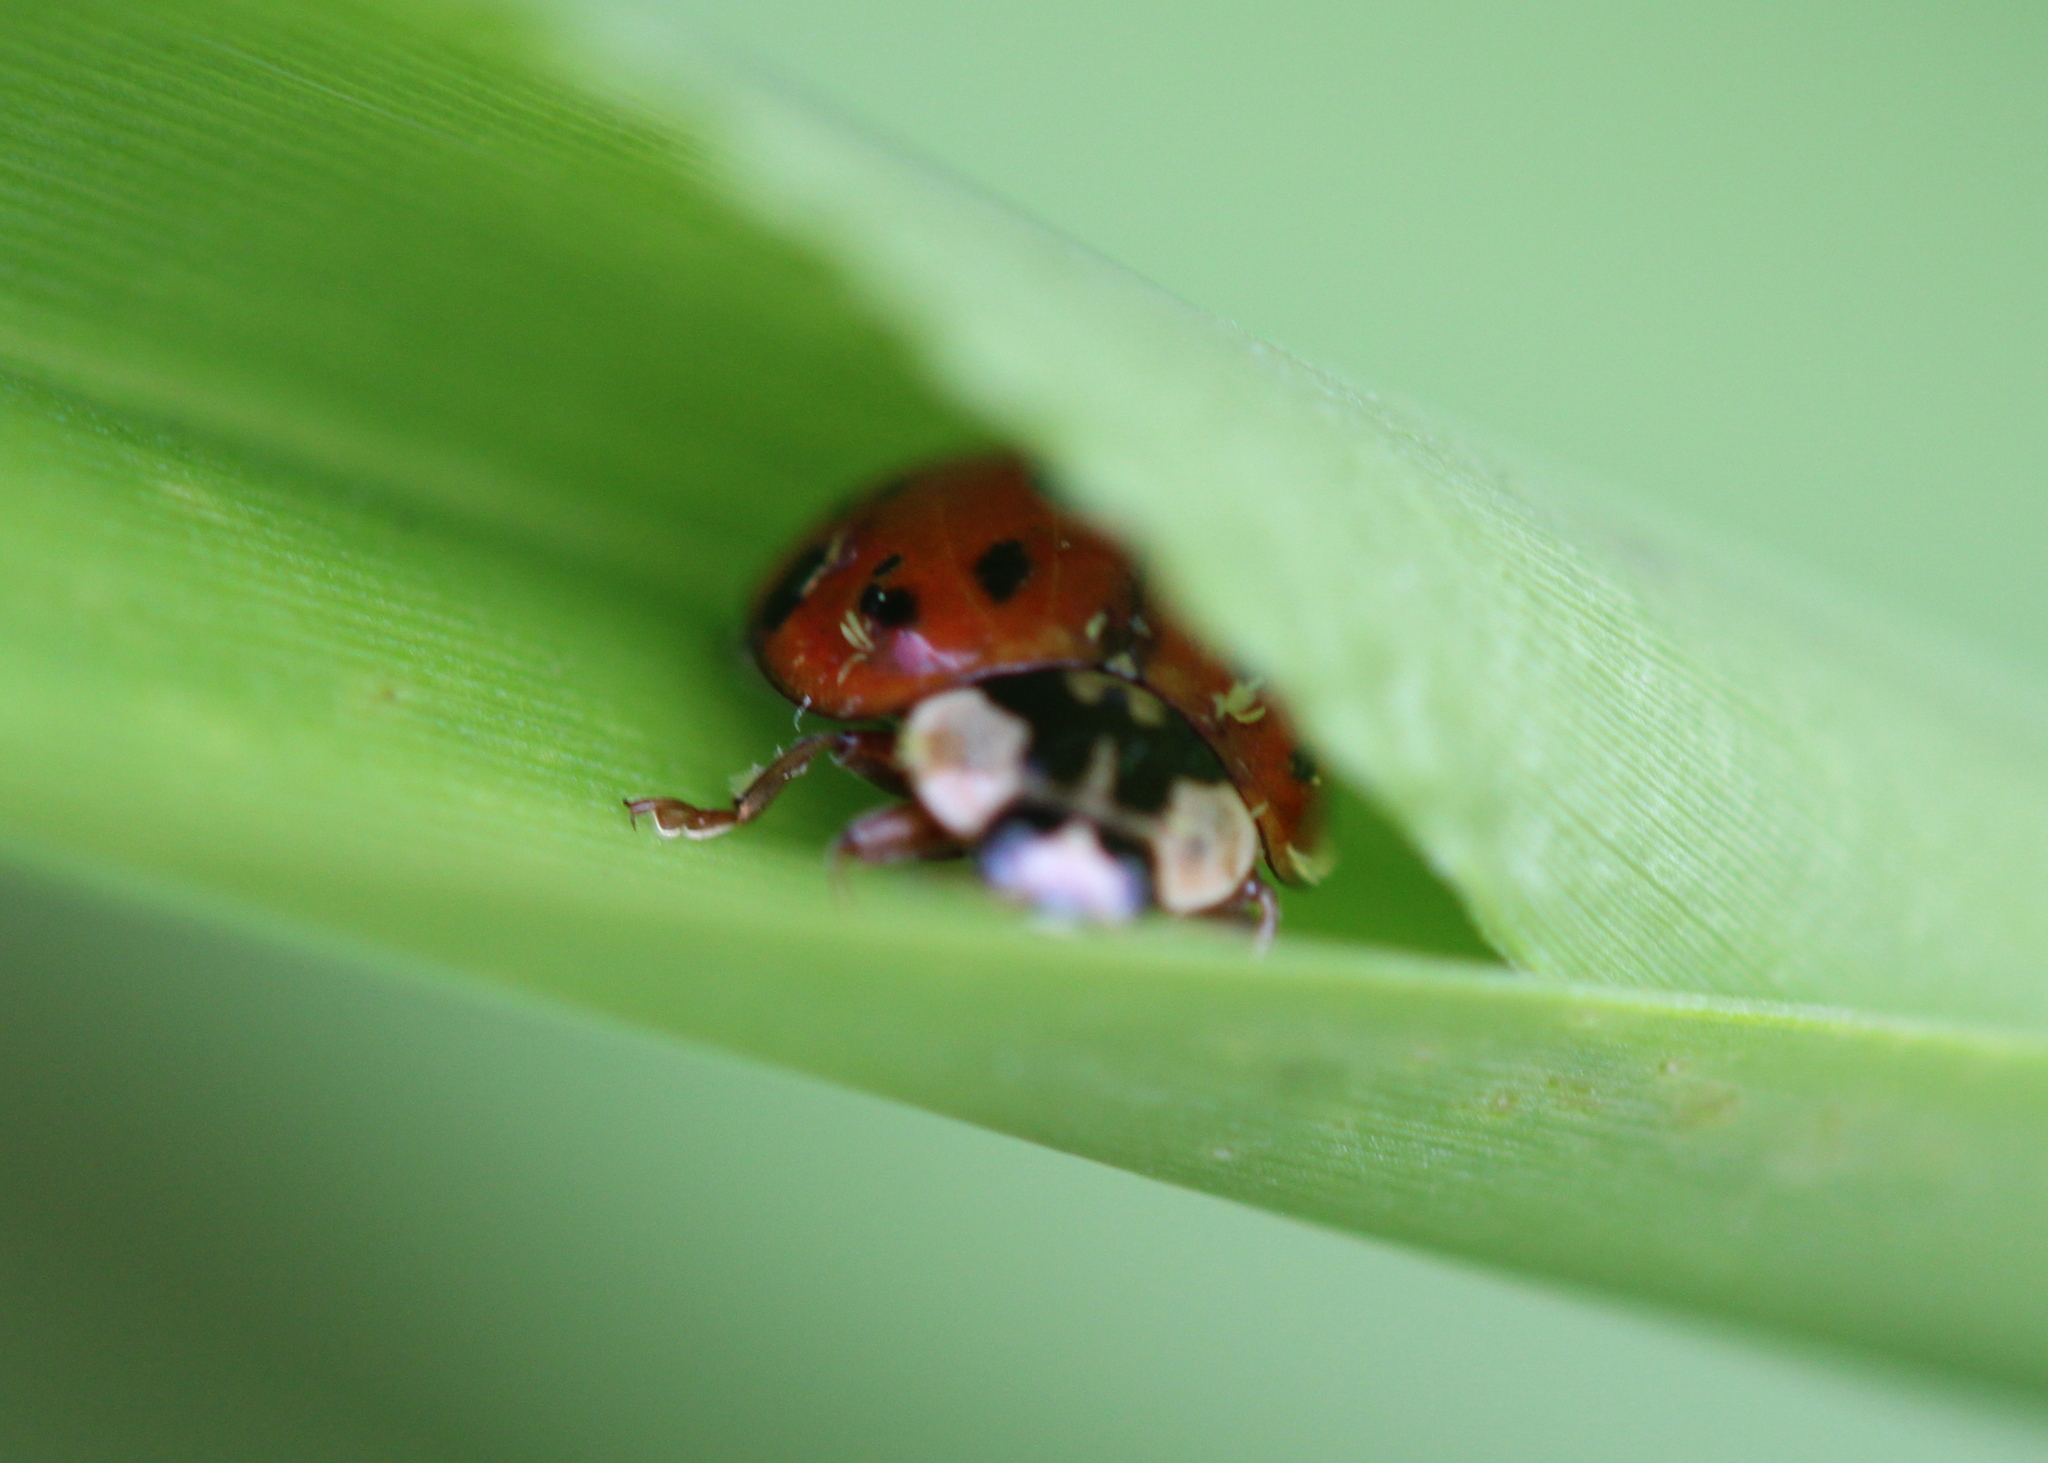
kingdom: Animalia
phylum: Arthropoda
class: Insecta
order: Coleoptera
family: Coccinellidae
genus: Harmonia
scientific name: Harmonia axyridis
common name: Harlequin ladybird
